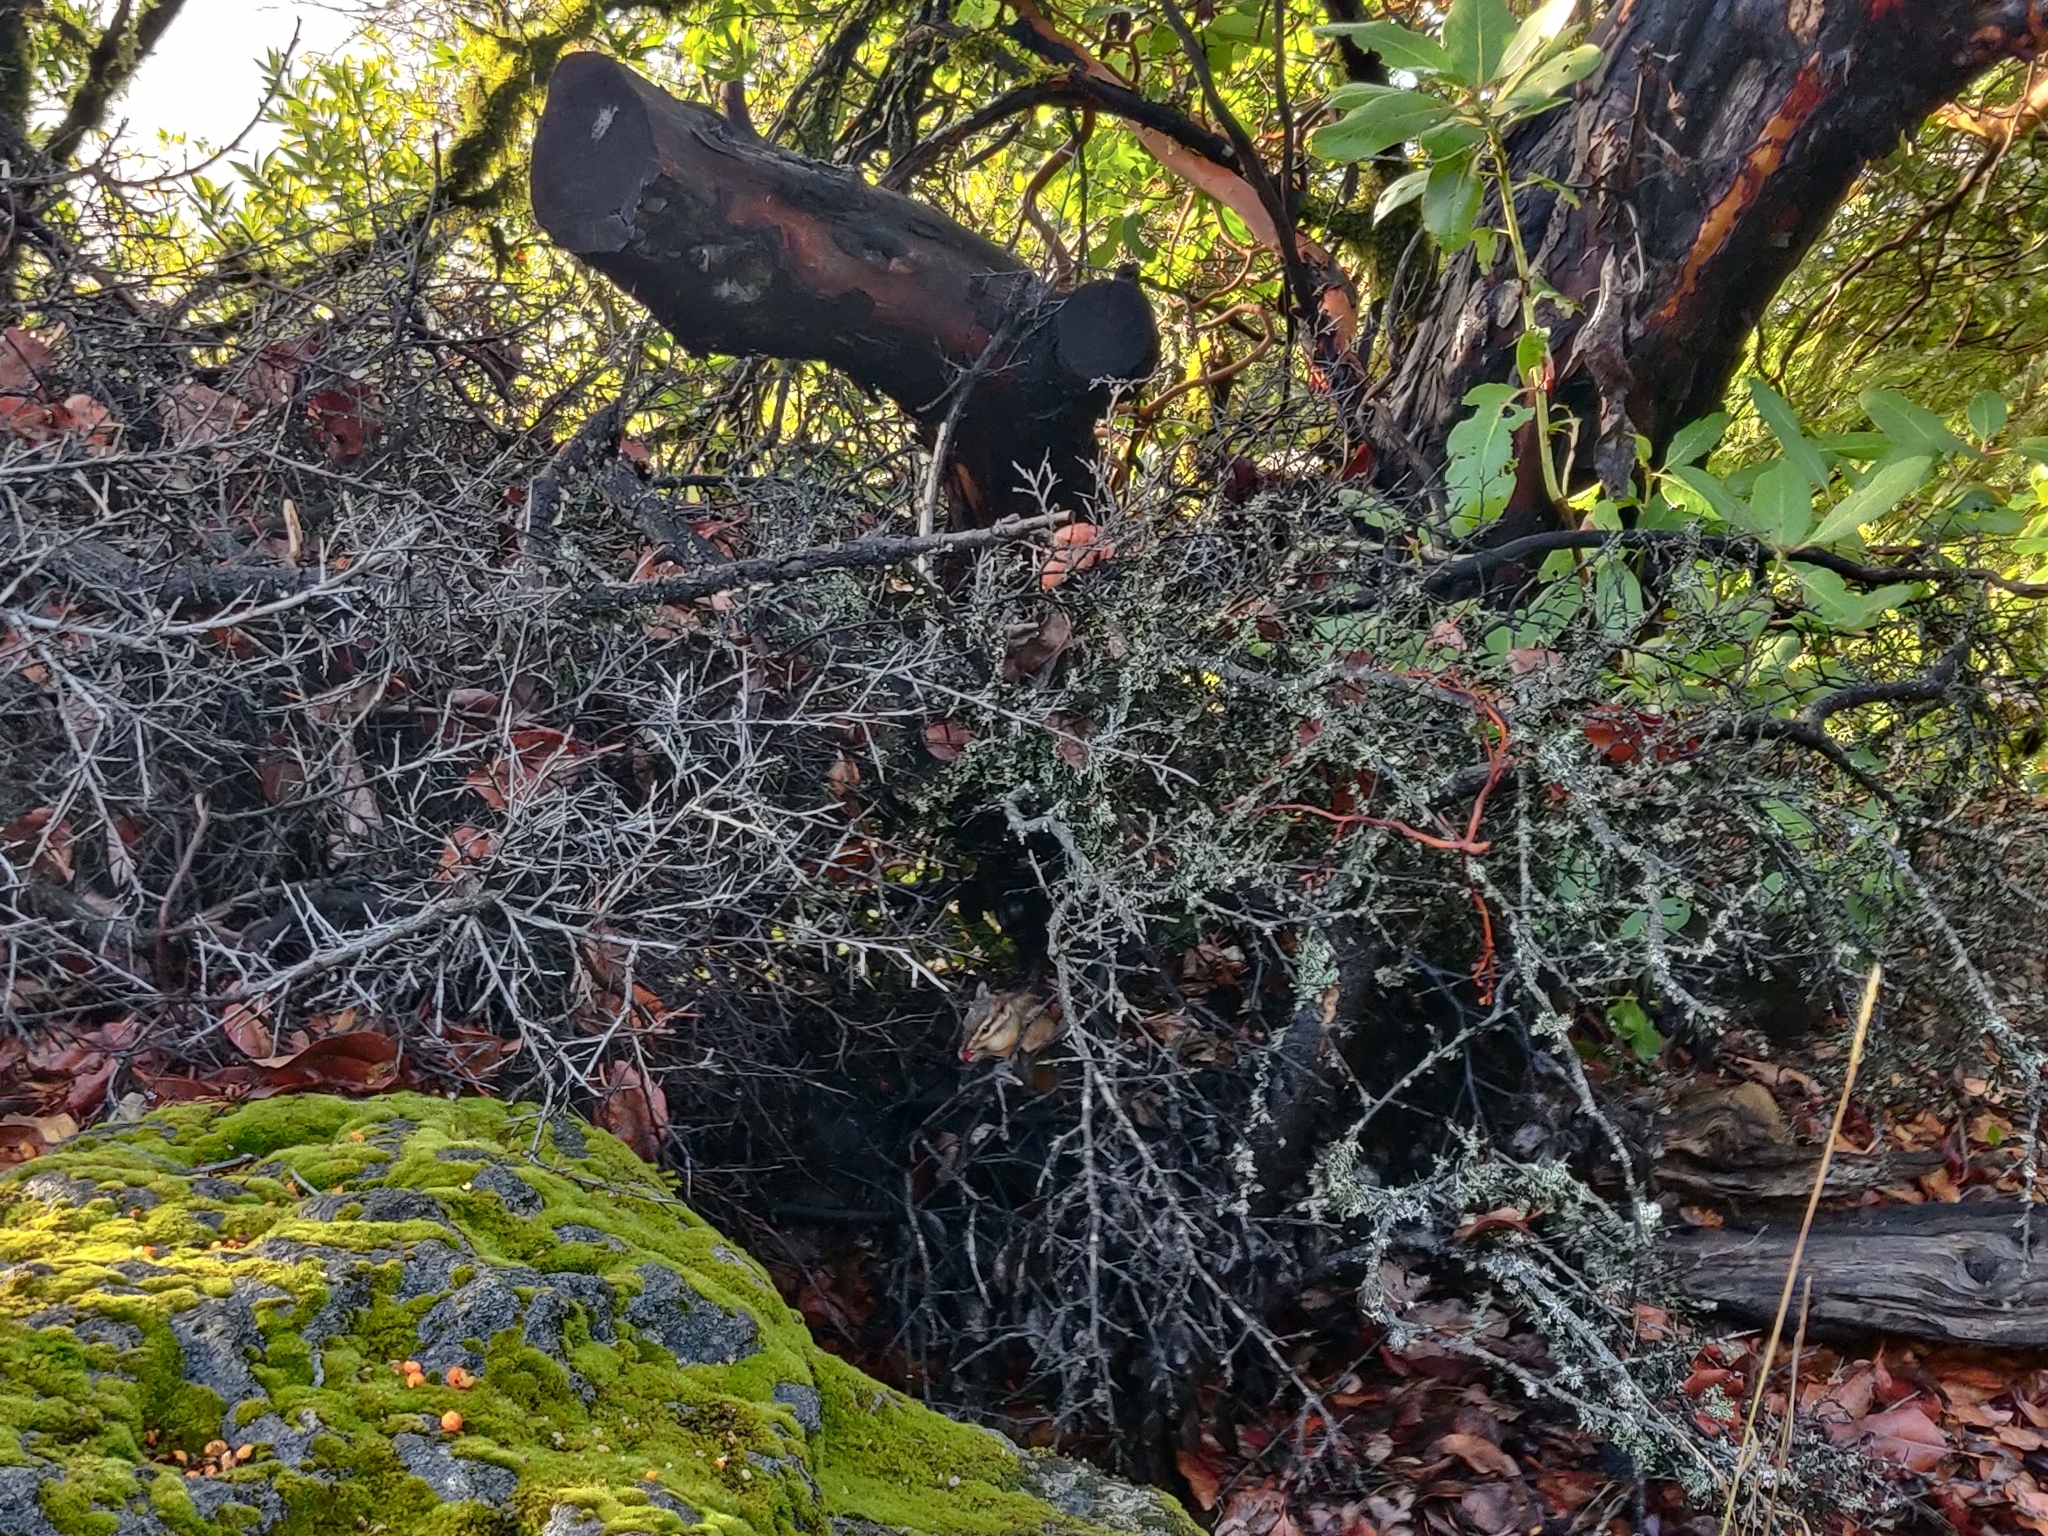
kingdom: Animalia
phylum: Chordata
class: Mammalia
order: Rodentia
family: Sciuridae
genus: Tamias
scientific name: Tamias sonomae
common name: Sonoma chipmunk
